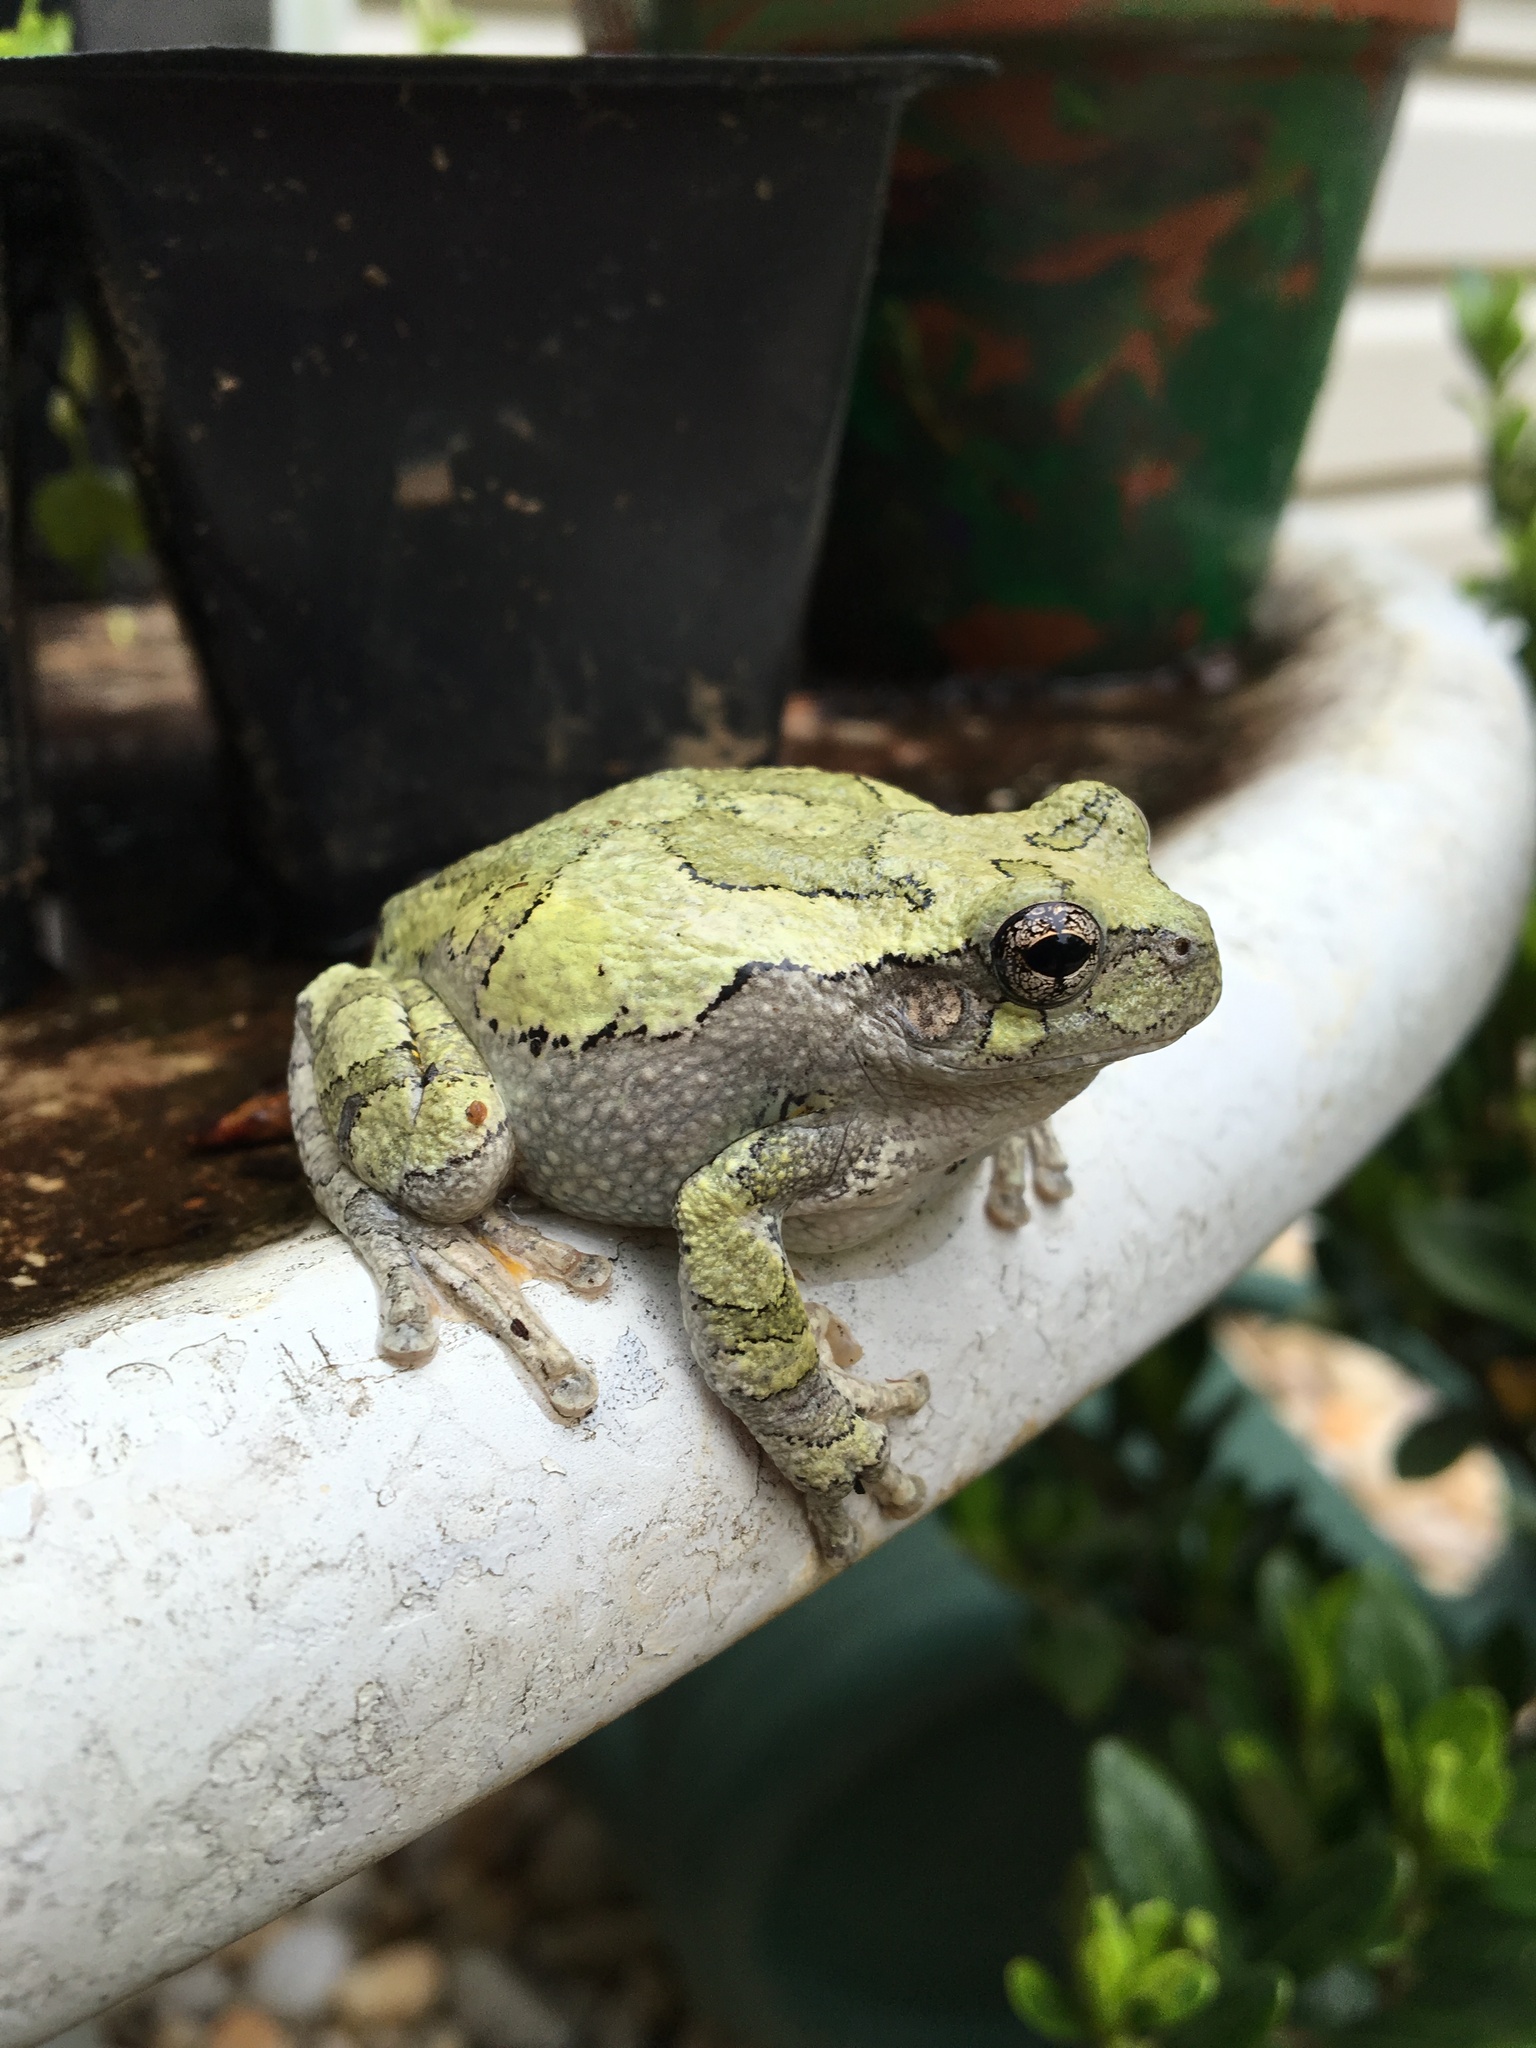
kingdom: Animalia
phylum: Chordata
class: Amphibia
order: Anura
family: Hylidae
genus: Dryophytes
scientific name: Dryophytes versicolor
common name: Gray treefrog
